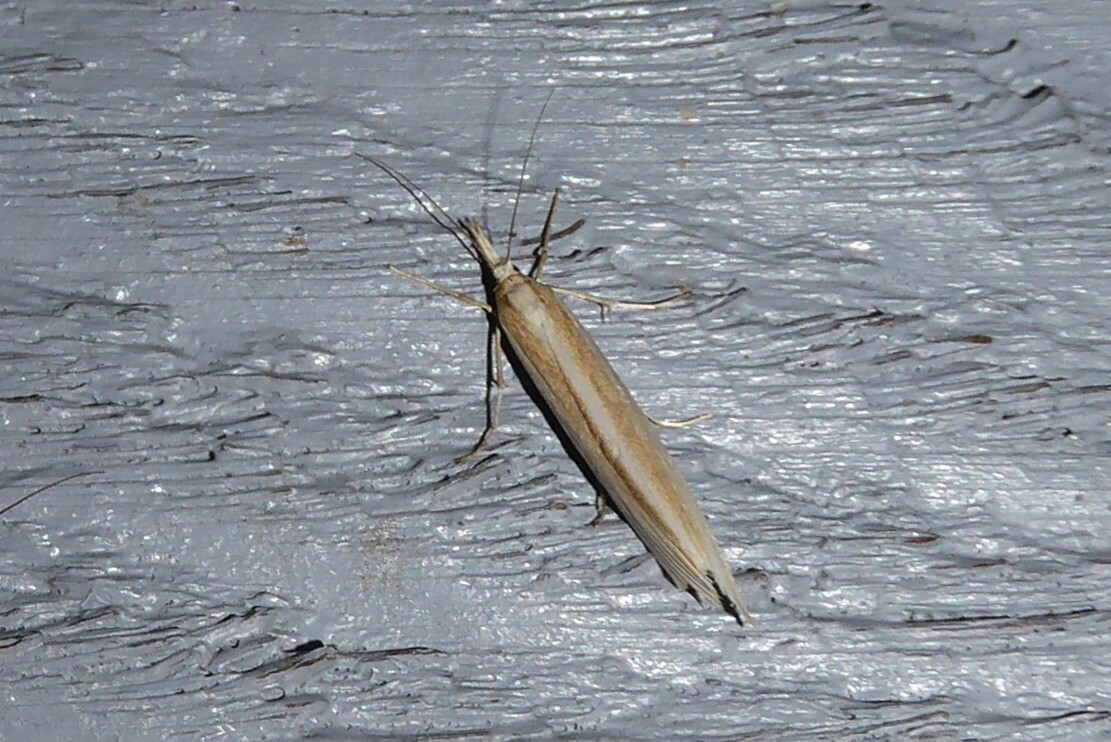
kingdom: Animalia
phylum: Arthropoda
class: Insecta
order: Lepidoptera
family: Crambidae
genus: Orocrambus
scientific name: Orocrambus angustipennis
